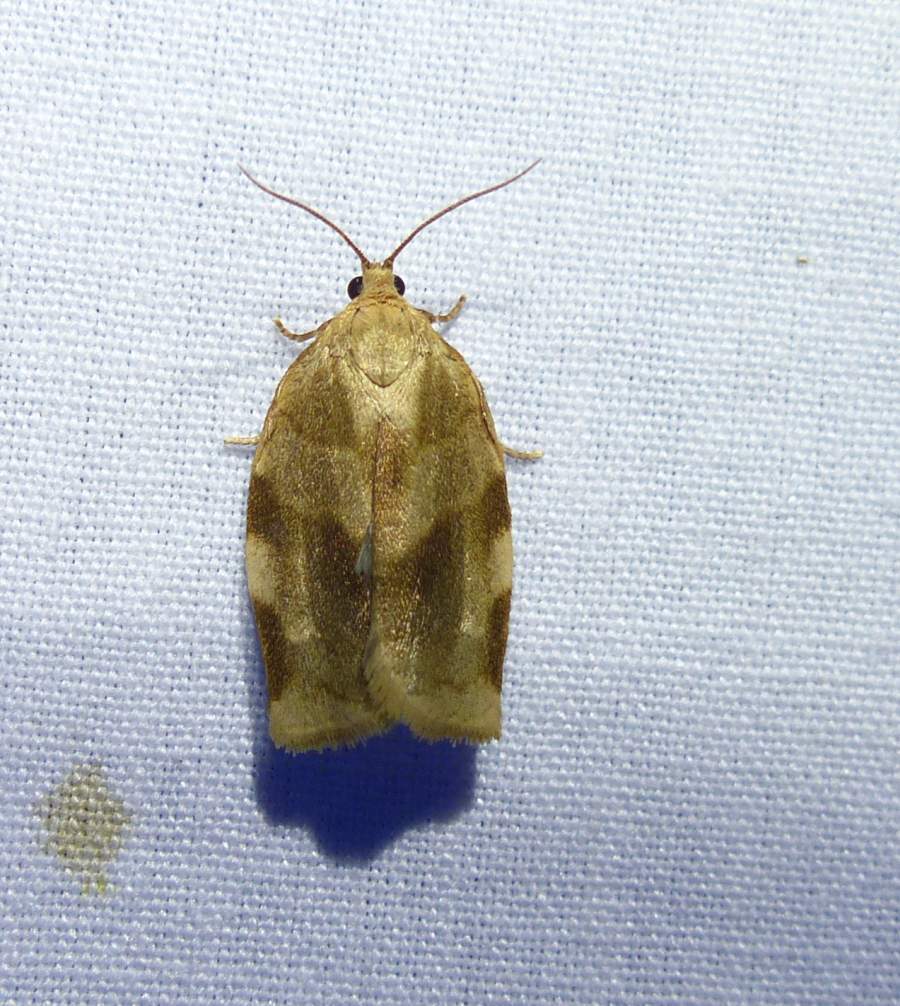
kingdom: Animalia
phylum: Arthropoda
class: Insecta
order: Lepidoptera
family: Tortricidae
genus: Choristoneura
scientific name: Choristoneura fractivittana
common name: Broken-banded leafroller moth
